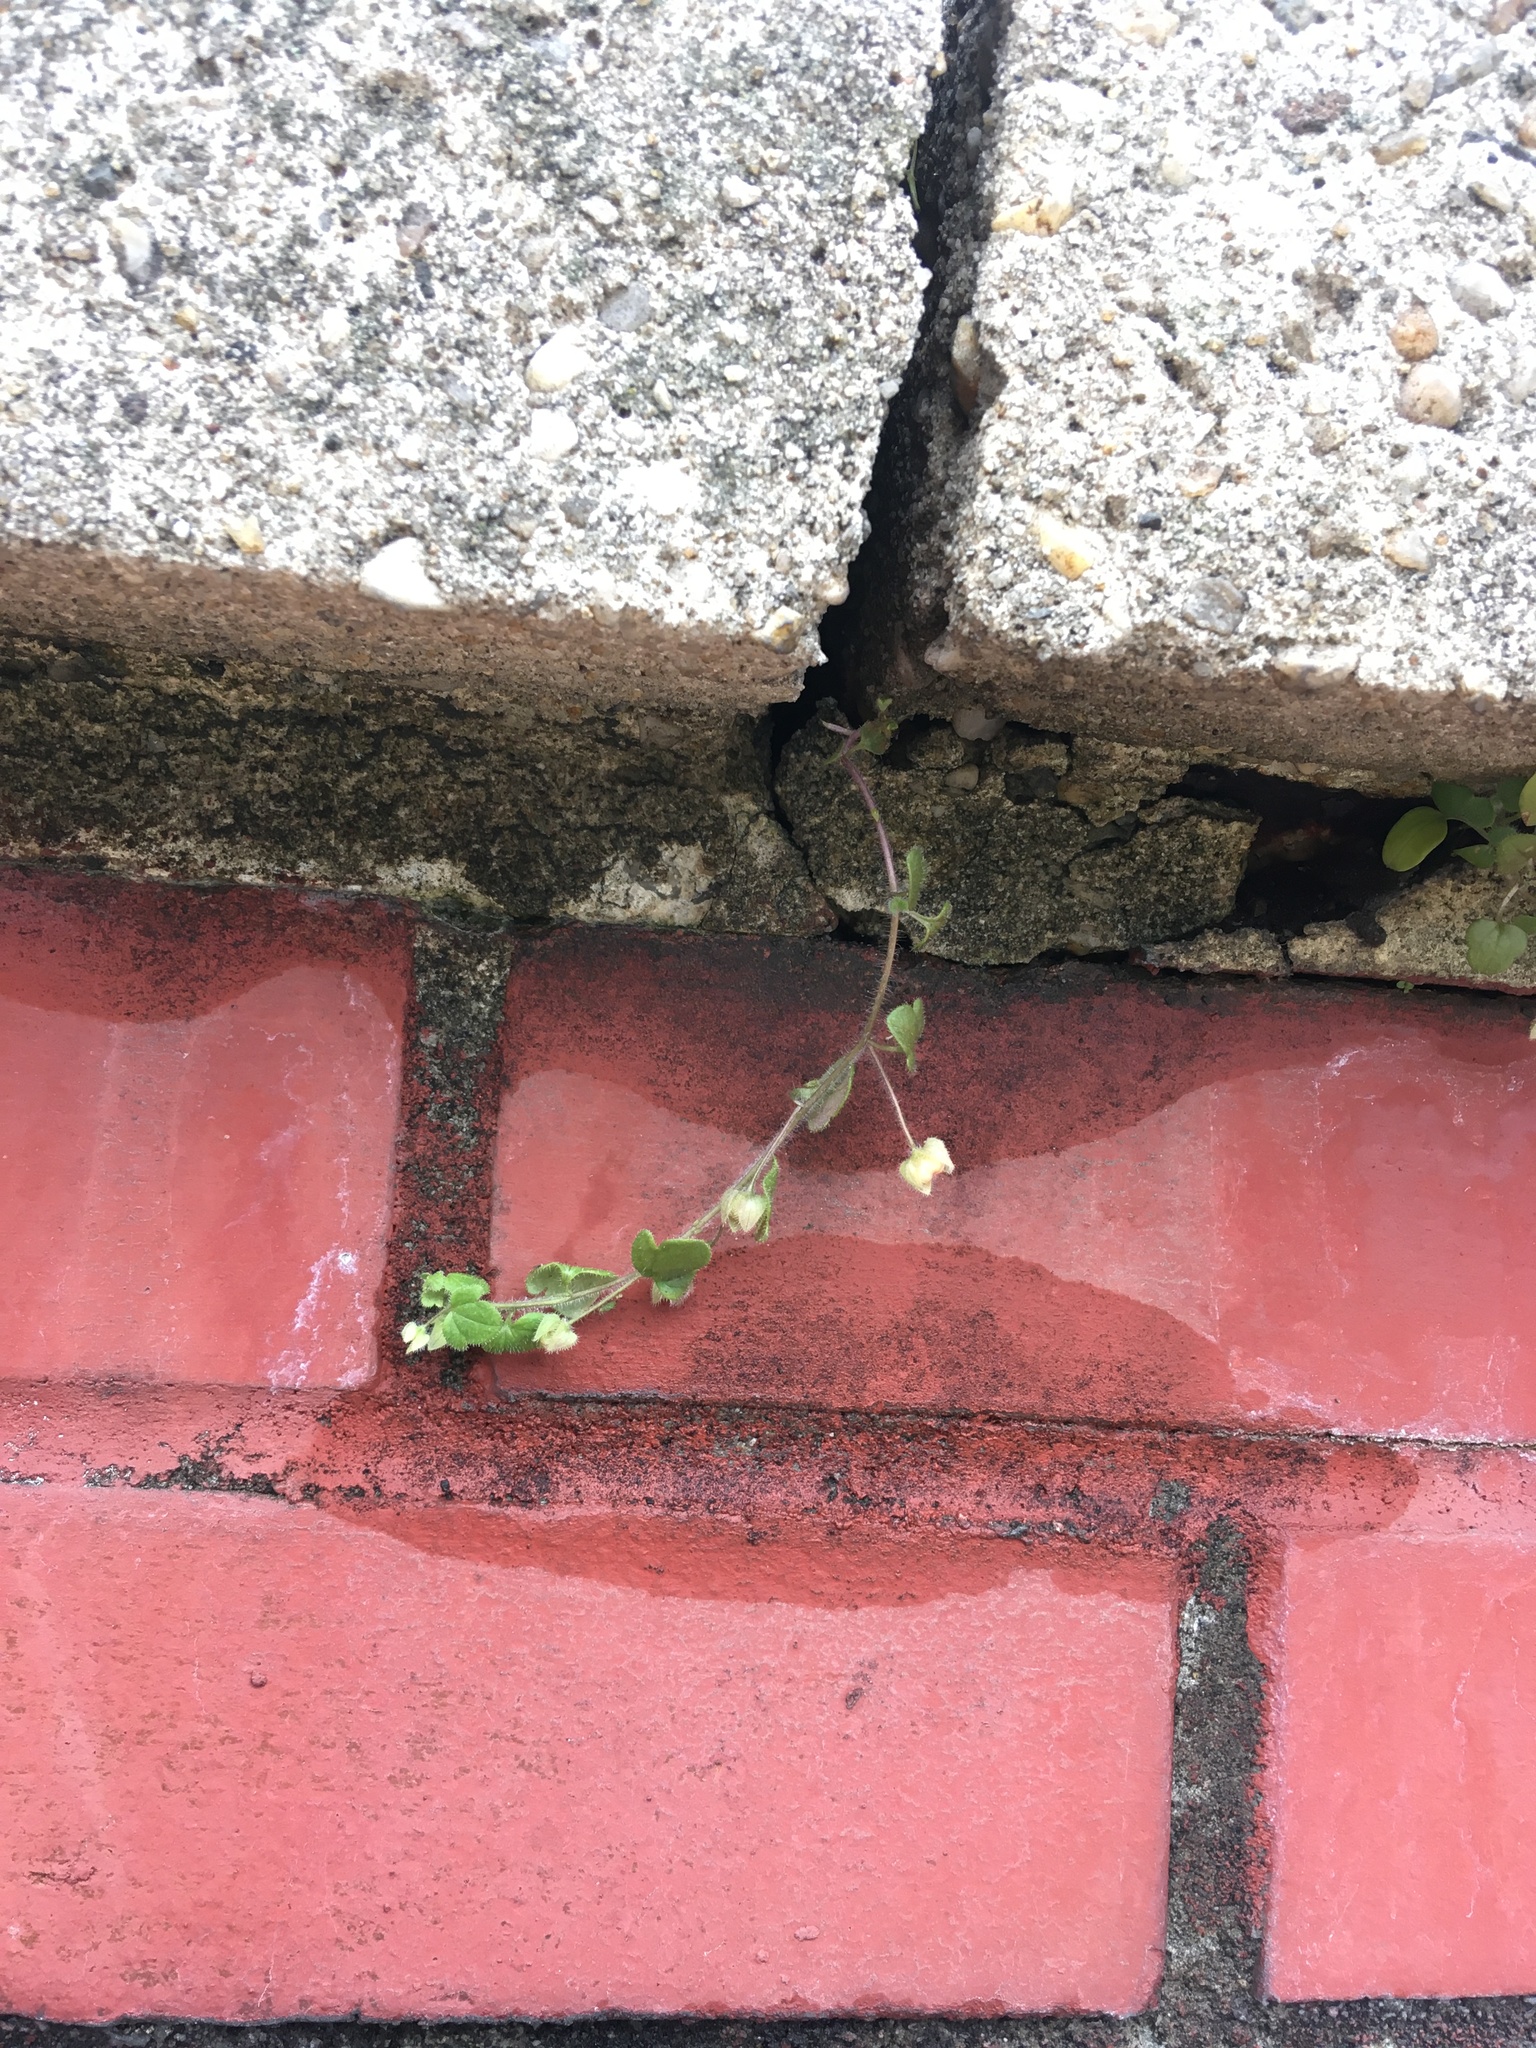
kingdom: Plantae
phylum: Tracheophyta
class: Magnoliopsida
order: Lamiales
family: Plantaginaceae
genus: Veronica
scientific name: Veronica sublobata
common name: False ivy-leaved speedwell
